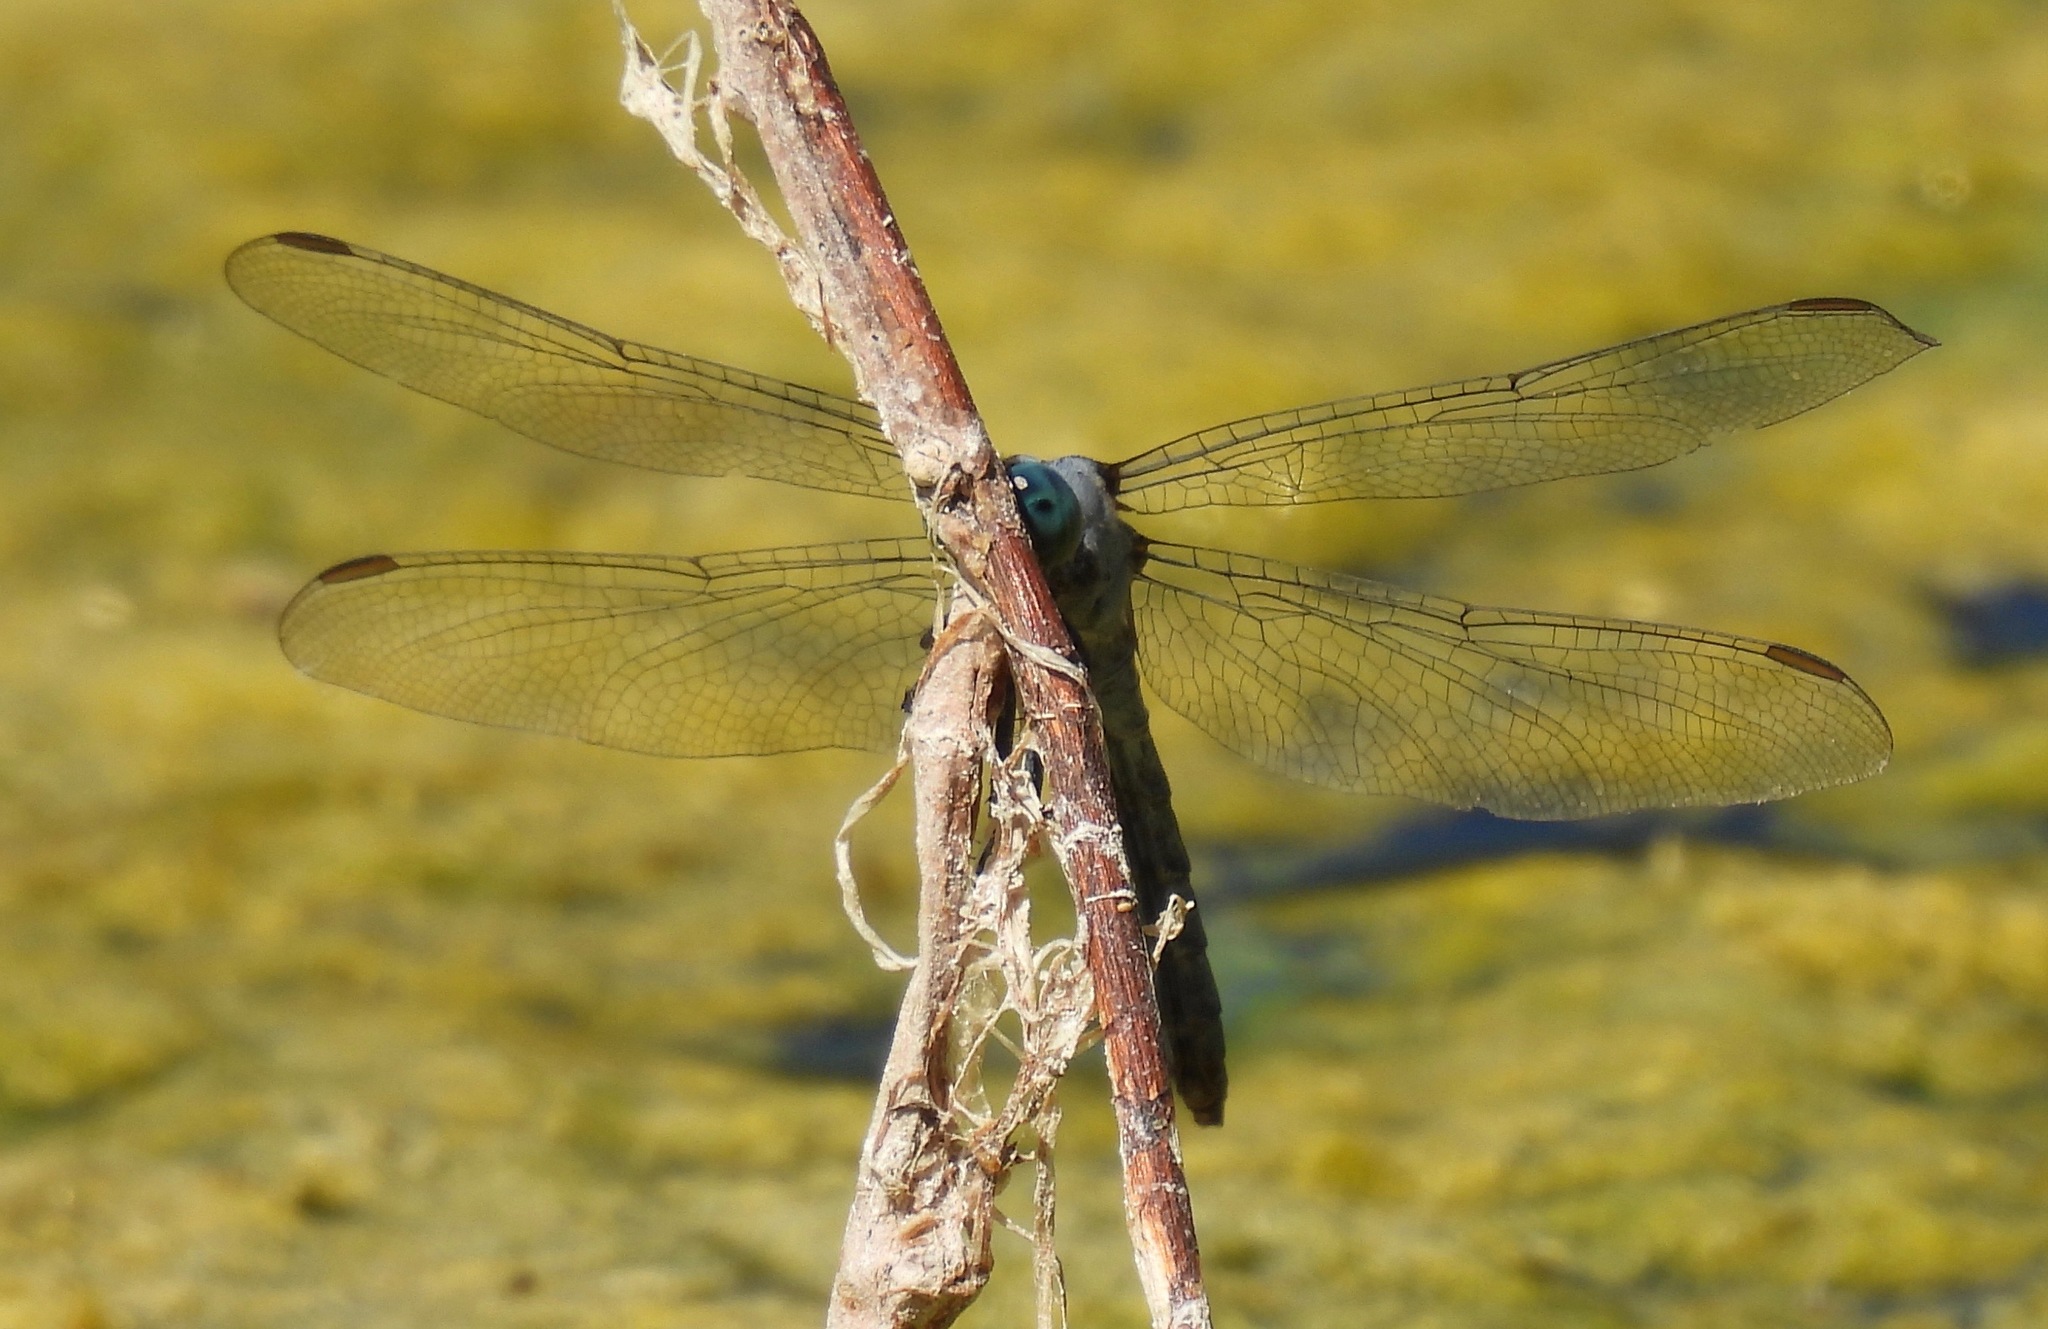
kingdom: Animalia
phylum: Arthropoda
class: Insecta
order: Odonata
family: Libellulidae
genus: Erythemis
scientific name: Erythemis collocata
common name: Western pondhawk
